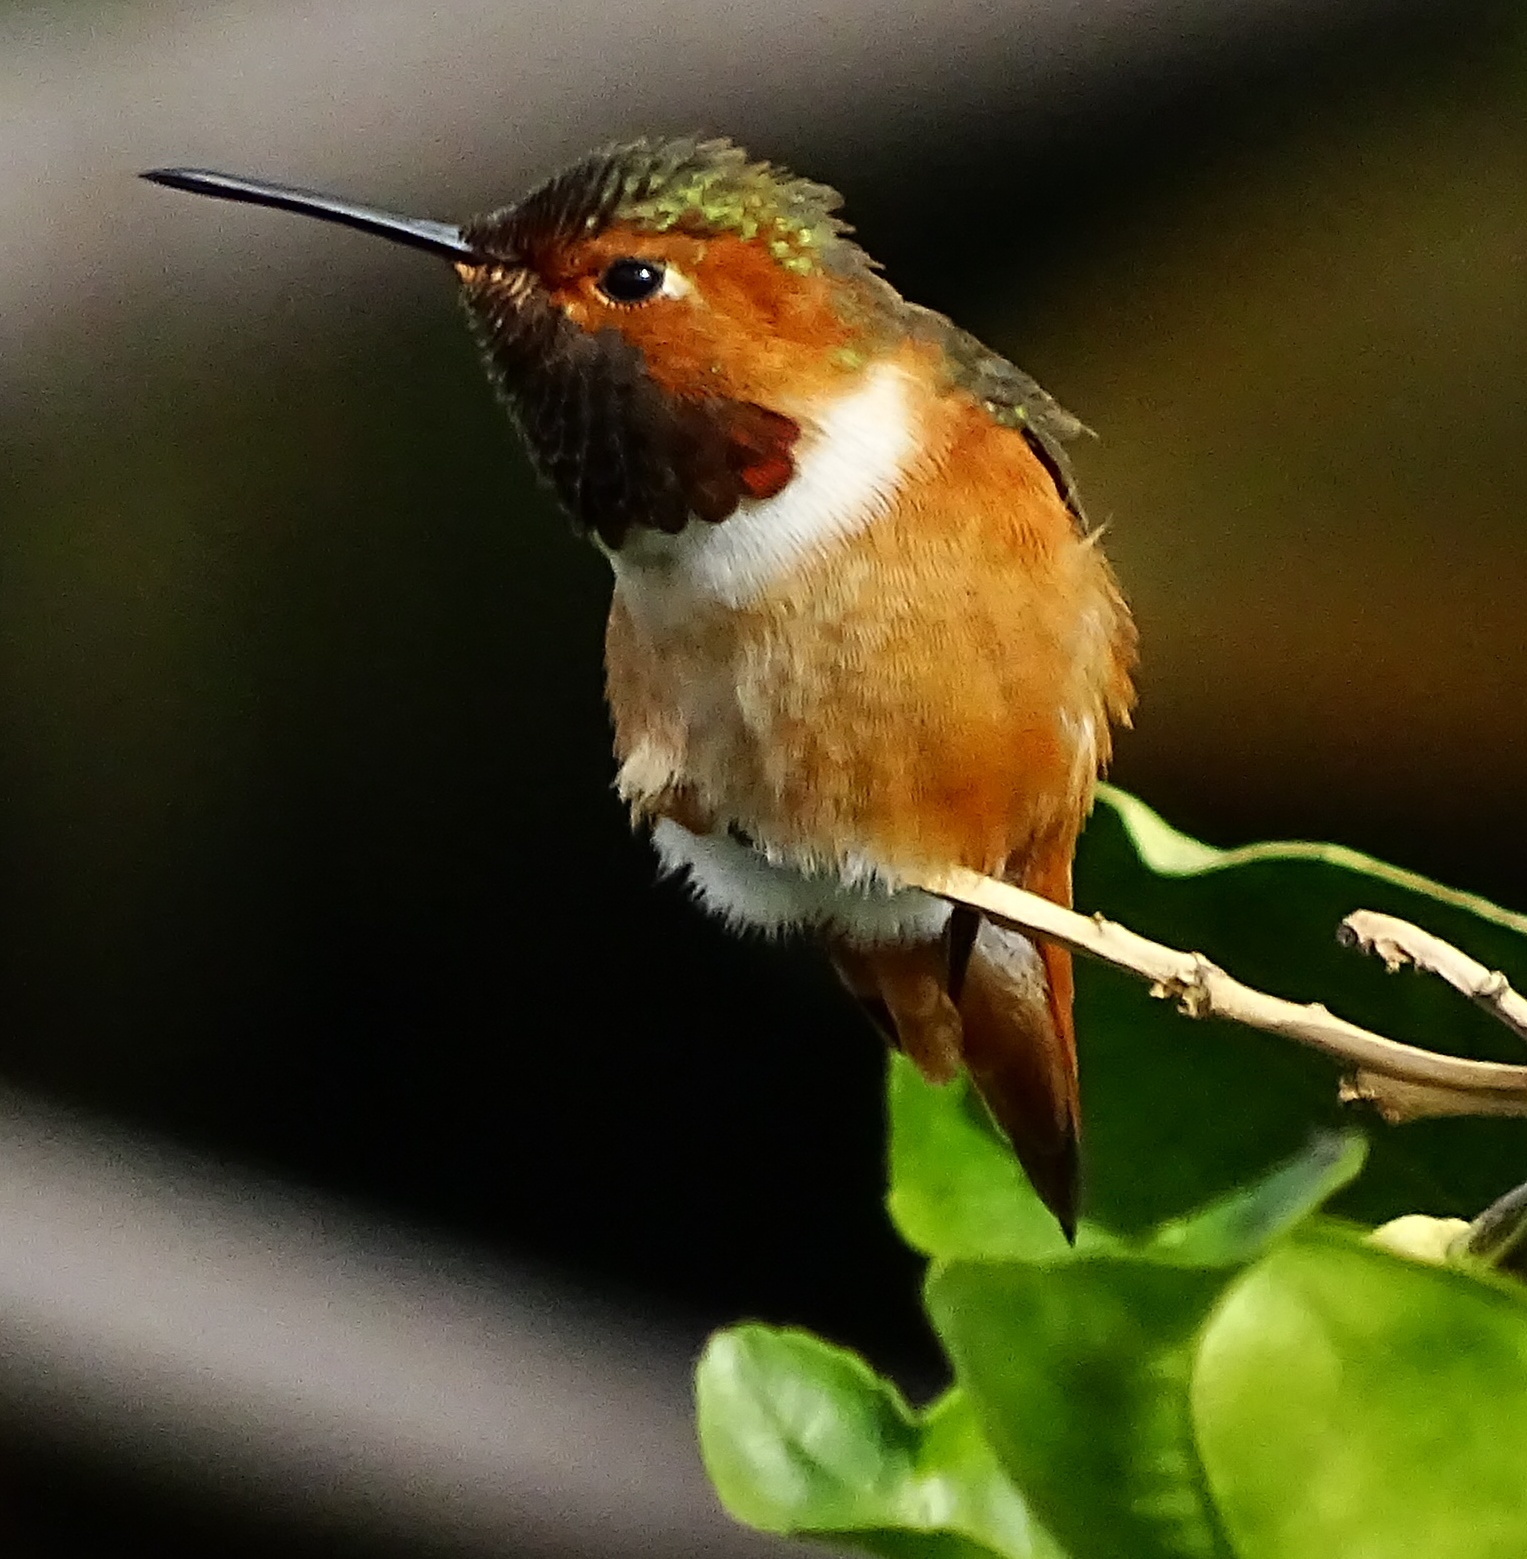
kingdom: Animalia
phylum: Chordata
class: Aves
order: Apodiformes
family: Trochilidae
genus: Selasphorus
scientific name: Selasphorus sasin
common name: Allen's hummingbird
